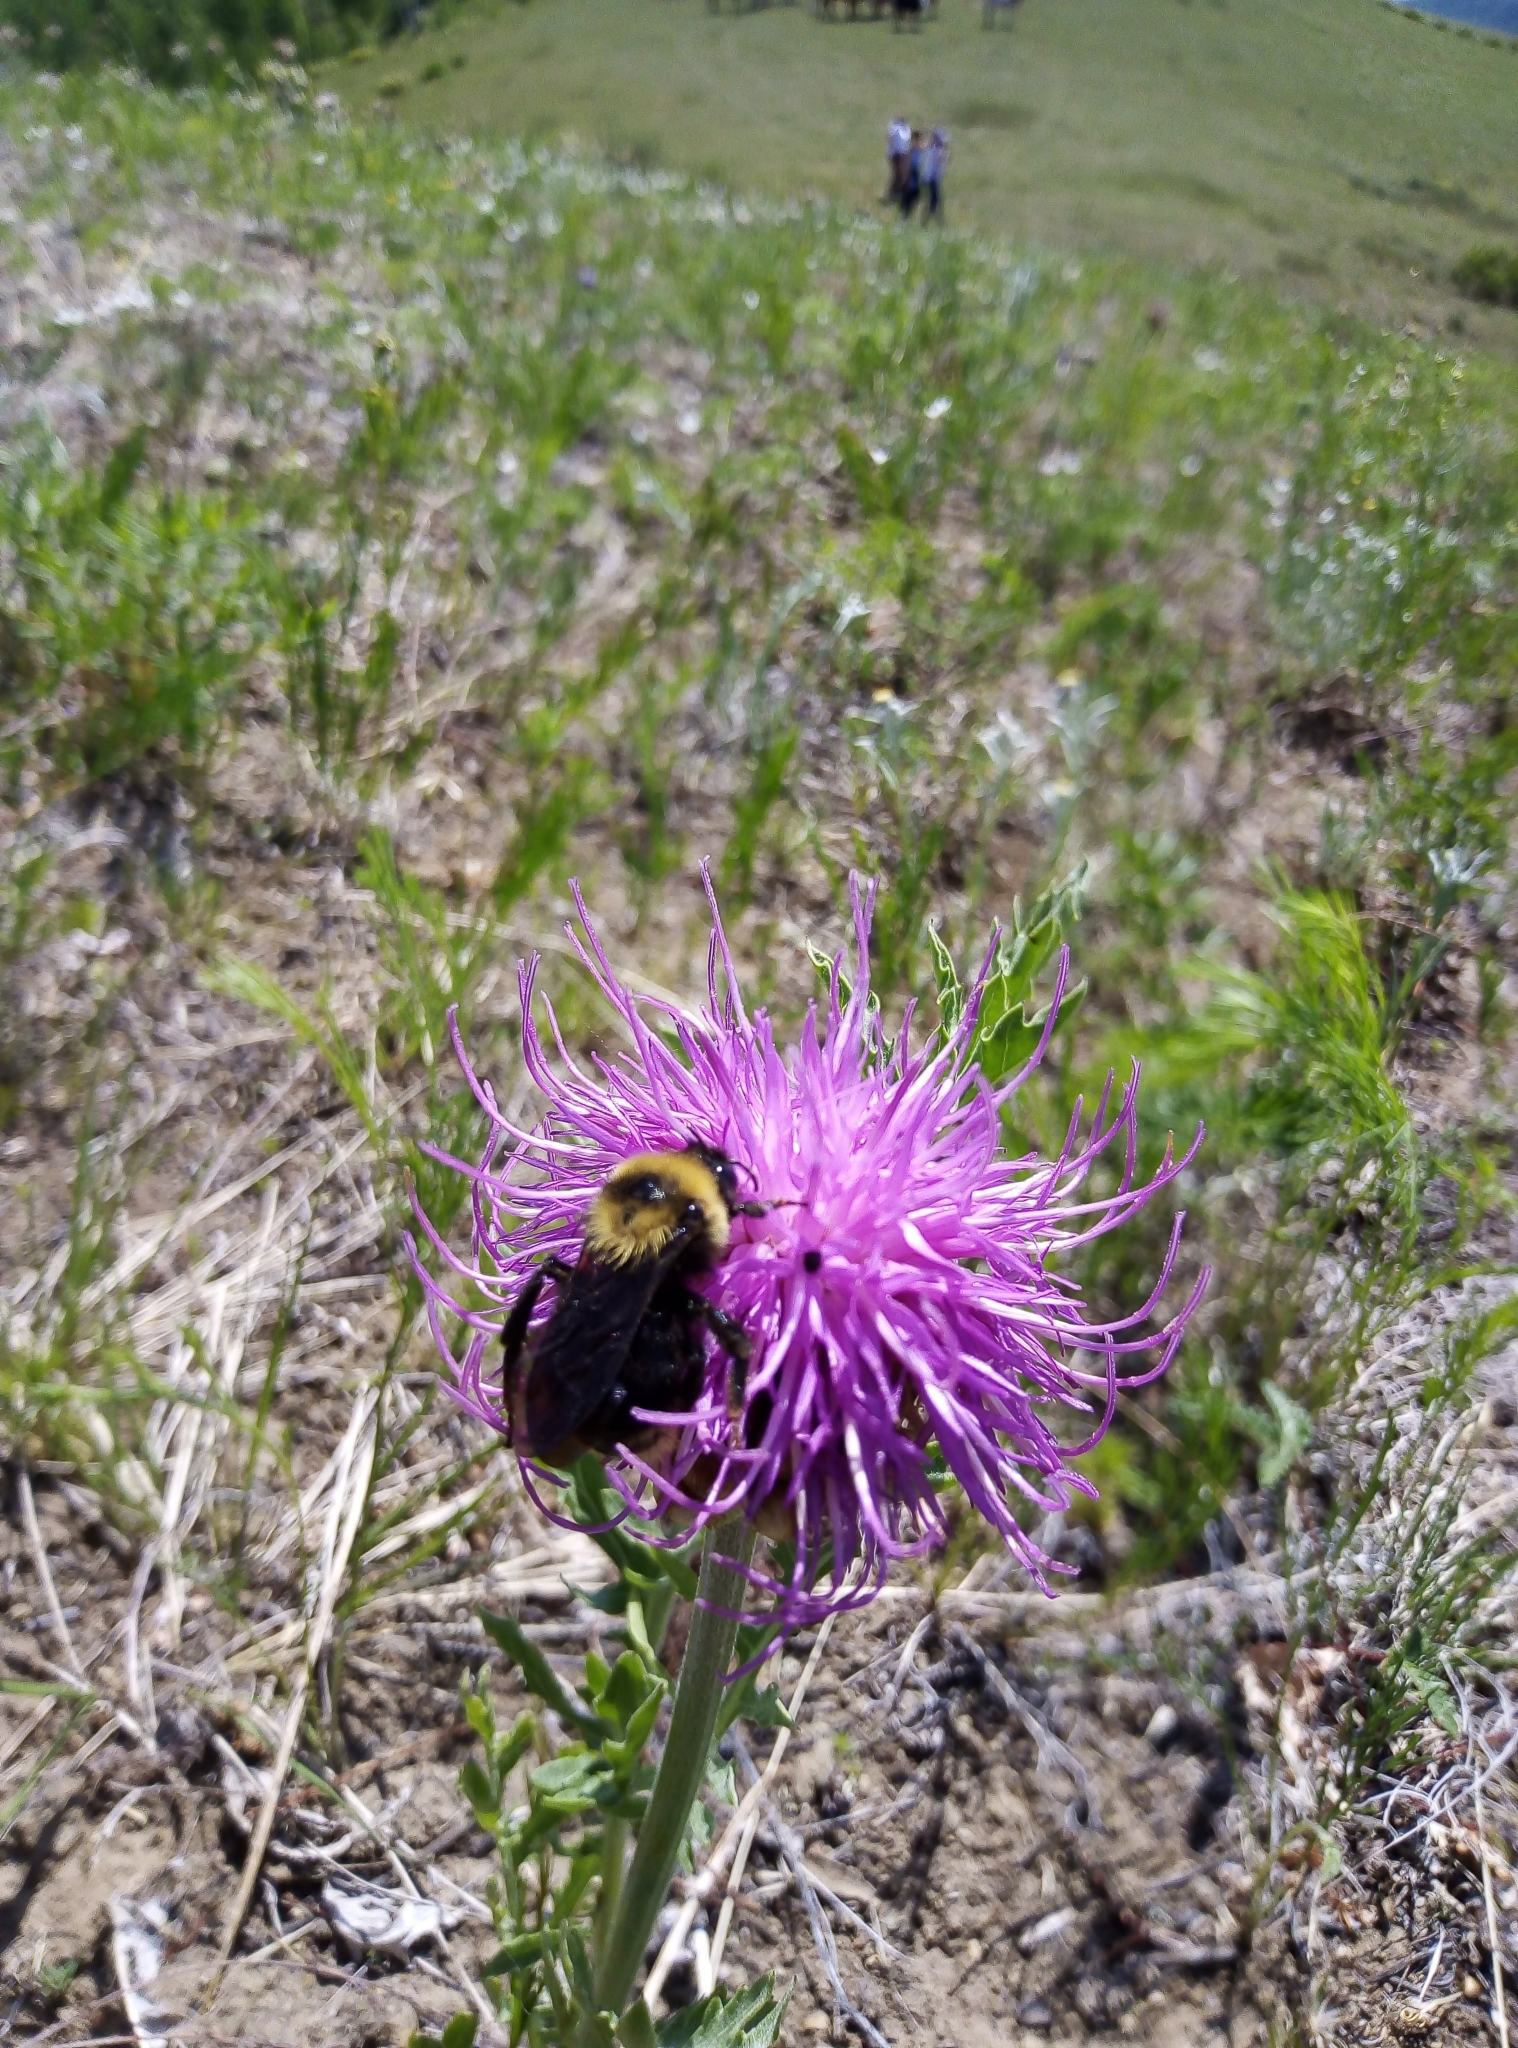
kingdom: Animalia
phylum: Arthropoda
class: Insecta
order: Hymenoptera
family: Apidae
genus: Bombus
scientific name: Bombus campestris
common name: Field cuckoo-bee
